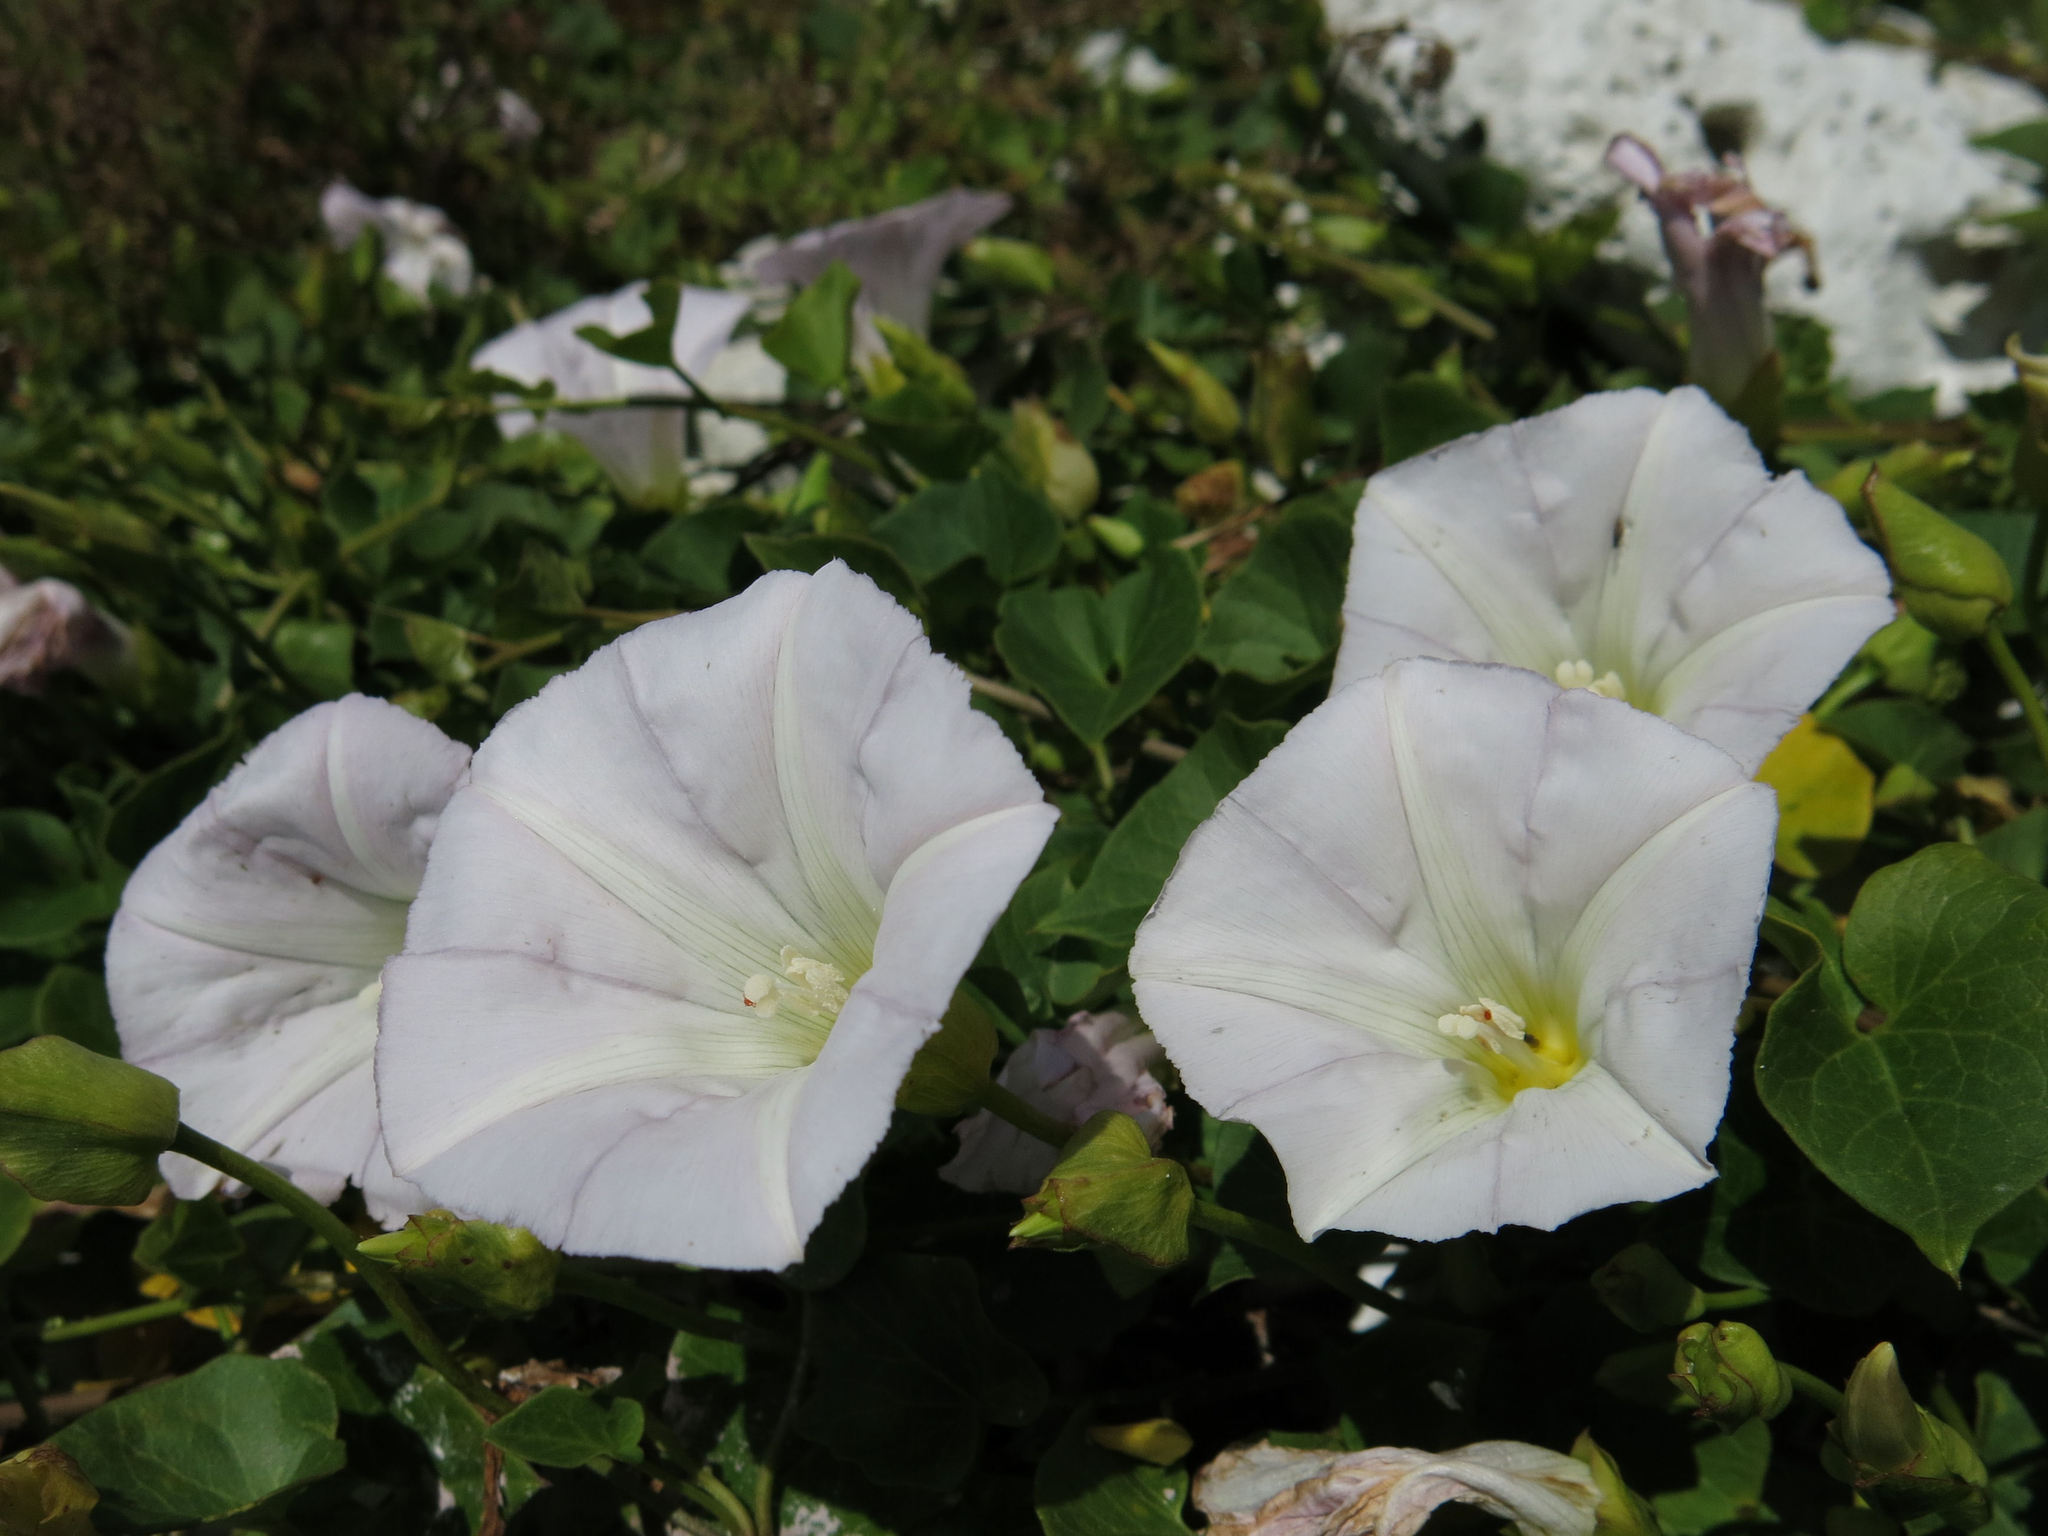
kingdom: Plantae
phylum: Tracheophyta
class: Magnoliopsida
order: Solanales
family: Convolvulaceae
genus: Calystegia
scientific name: Calystegia tuguriorum
